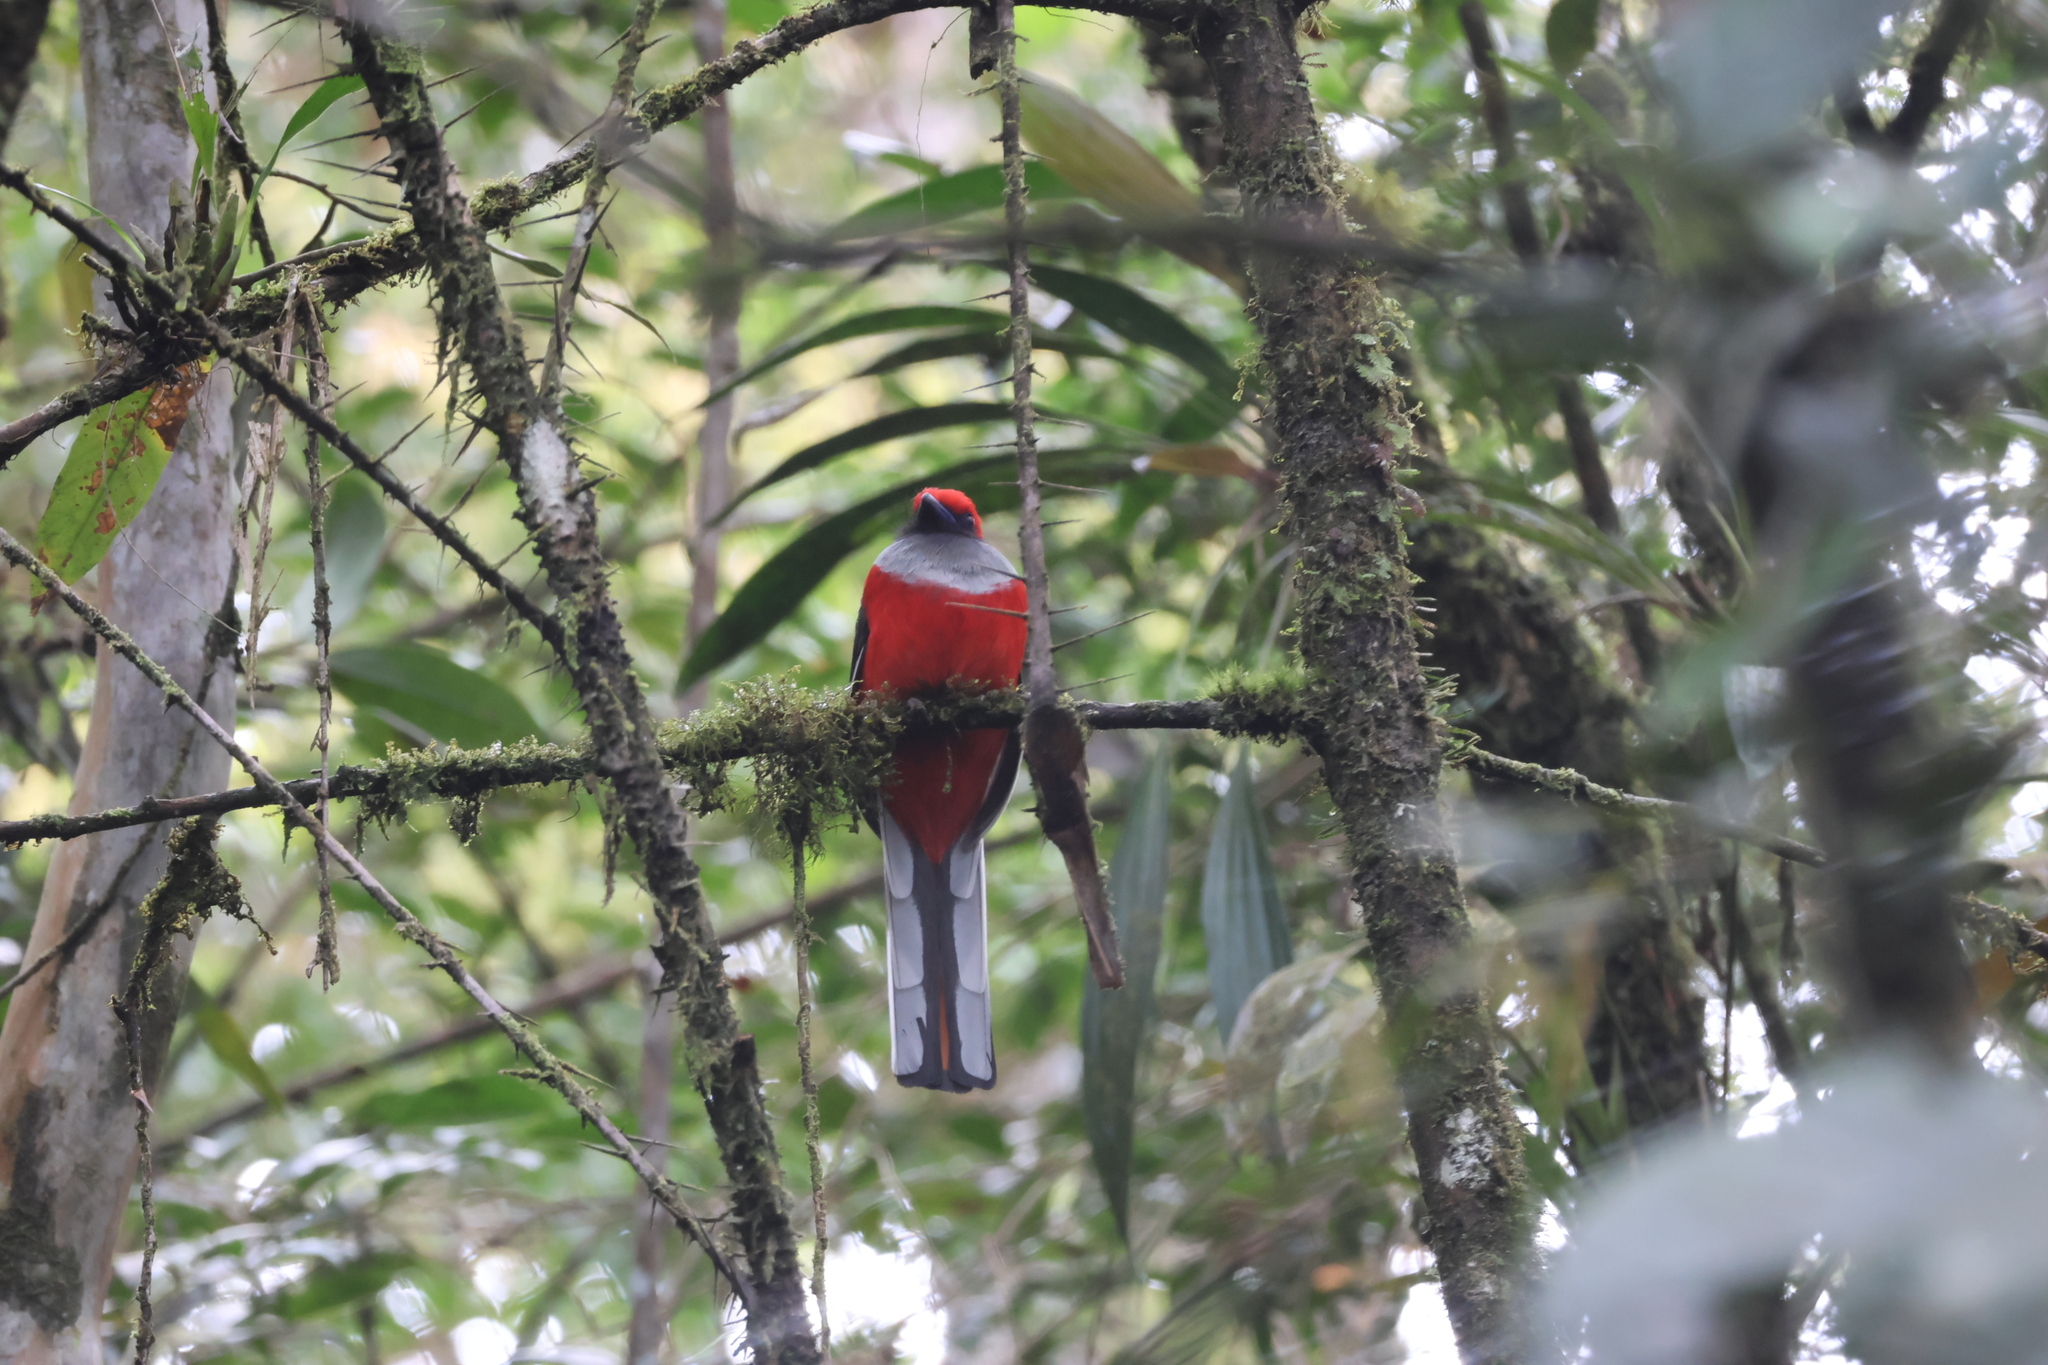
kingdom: Animalia
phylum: Chordata
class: Aves
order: Trogoniformes
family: Trogonidae
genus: Harpactes
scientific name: Harpactes whiteheadi
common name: Whitehead's trogon
